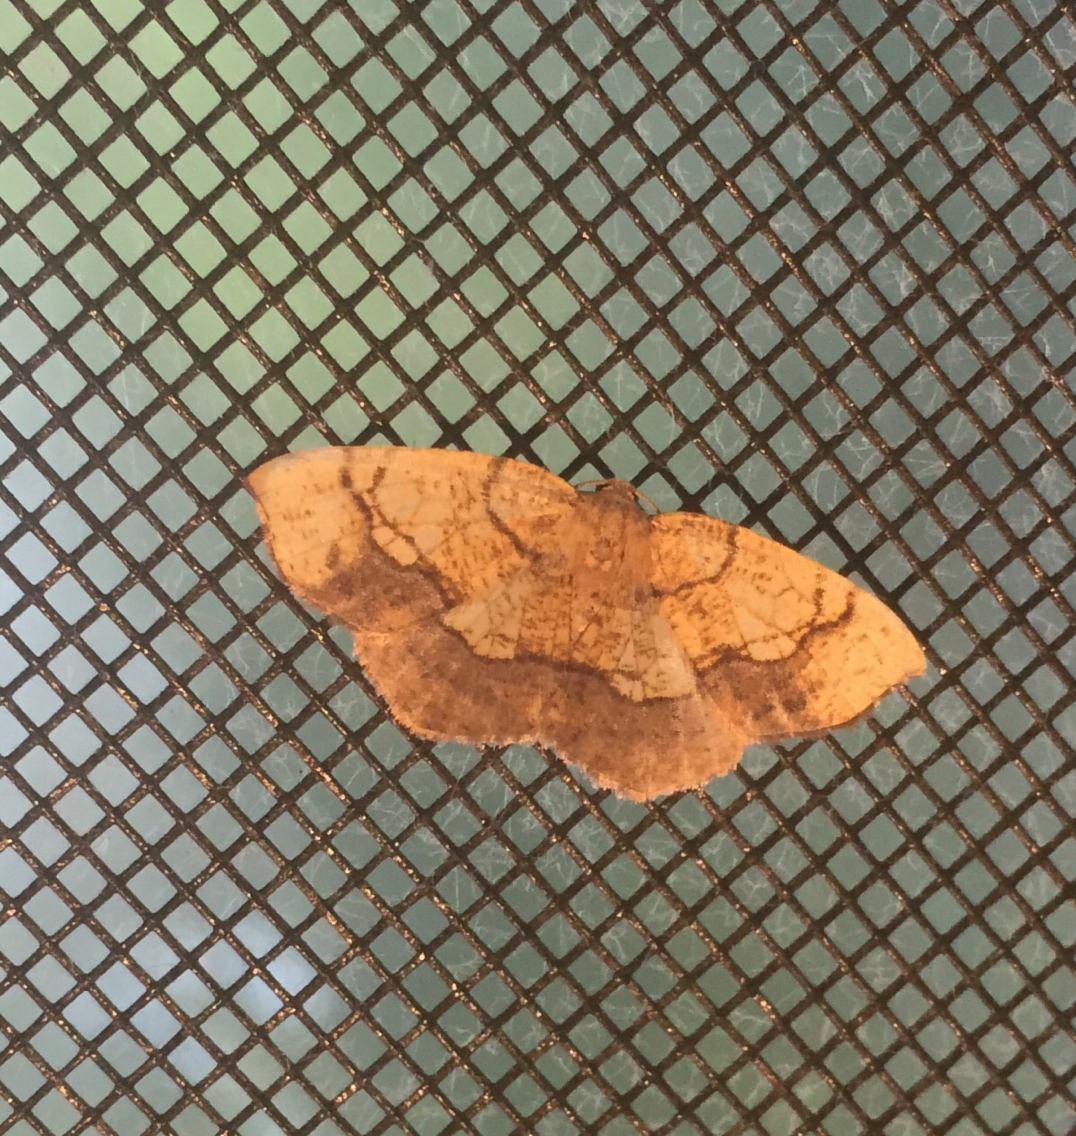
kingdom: Animalia
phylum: Arthropoda
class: Insecta
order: Lepidoptera
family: Geometridae
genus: Nematocampa
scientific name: Nematocampa resistaria
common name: Horned spanworm moth
